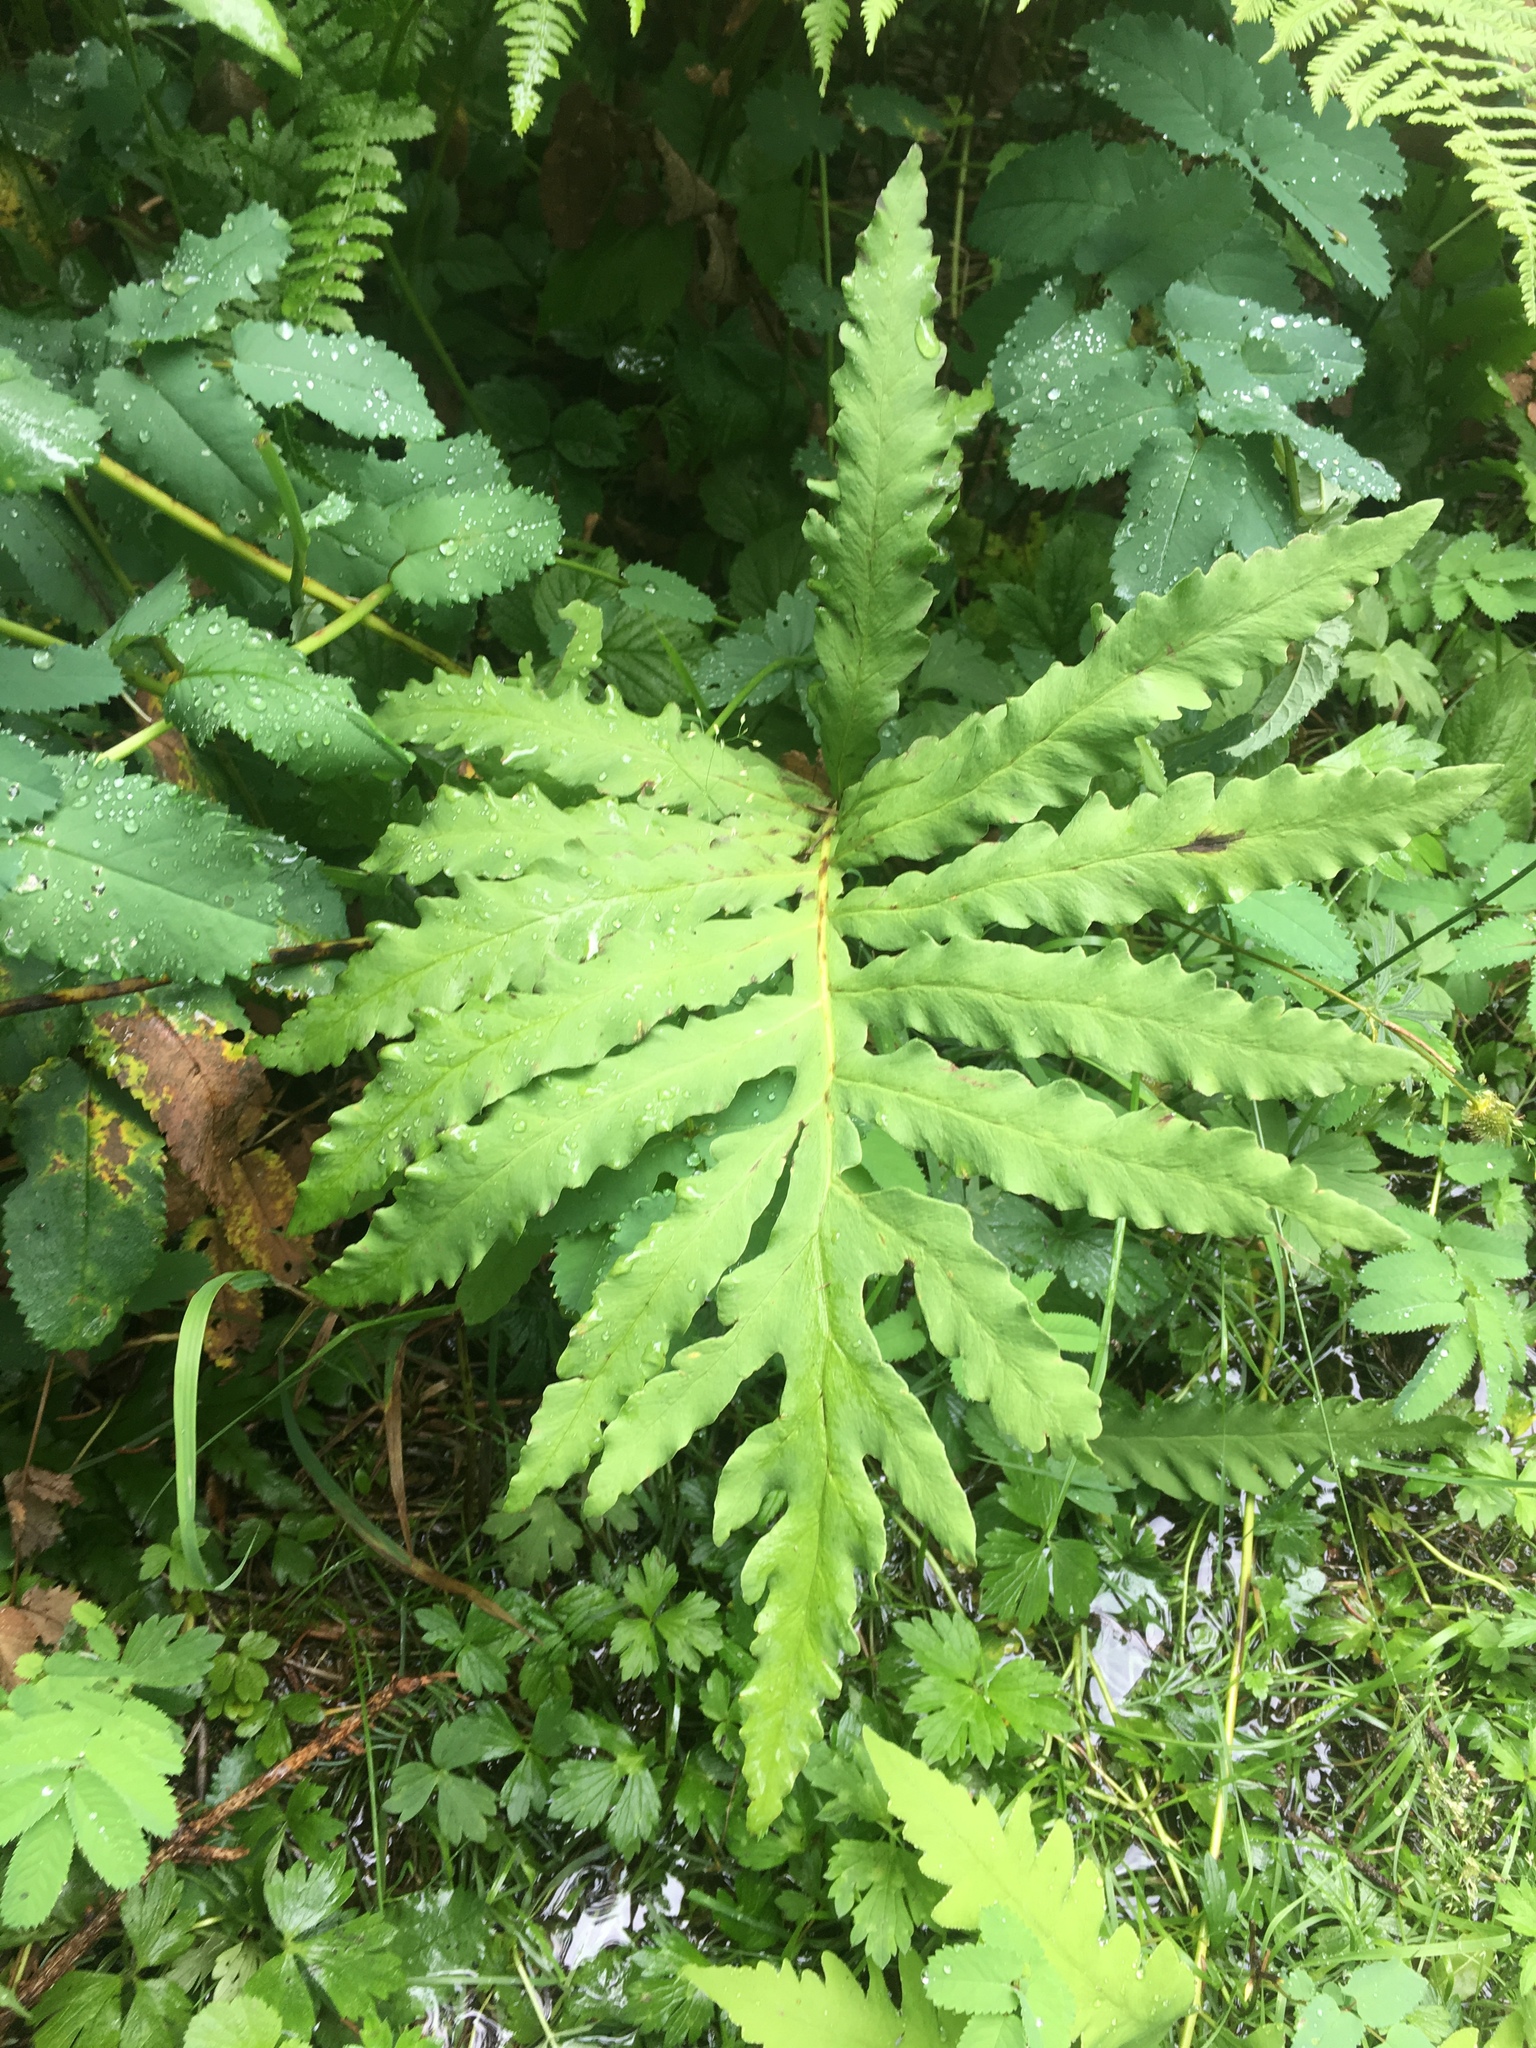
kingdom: Plantae
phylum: Tracheophyta
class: Polypodiopsida
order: Polypodiales
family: Onocleaceae
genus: Onoclea
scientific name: Onoclea sensibilis
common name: Sensitive fern
